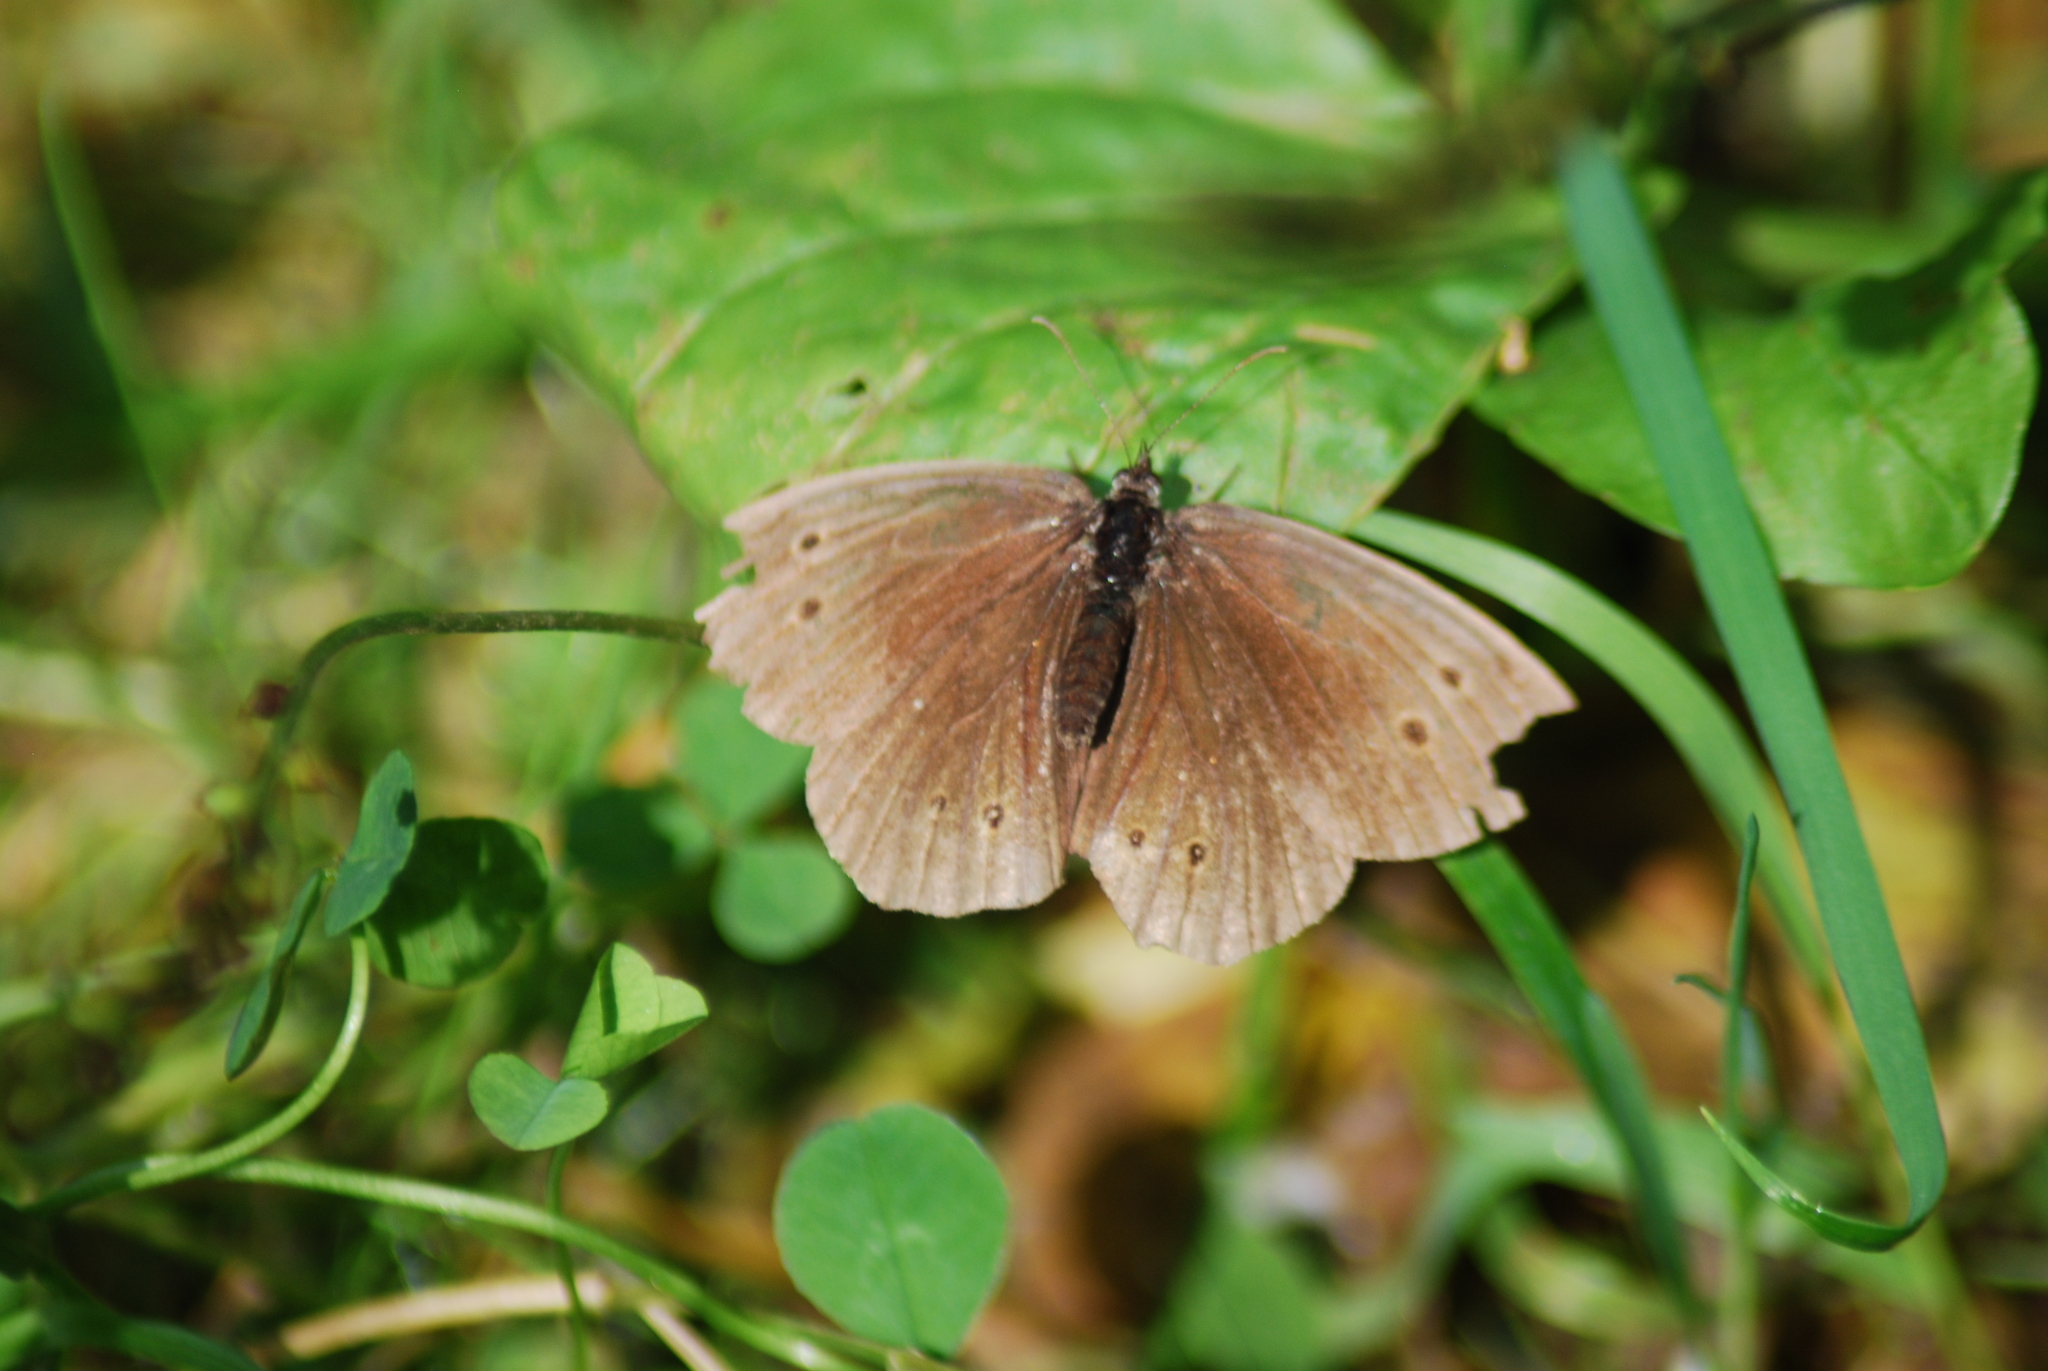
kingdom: Animalia
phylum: Arthropoda
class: Insecta
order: Lepidoptera
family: Nymphalidae
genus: Aphantopus
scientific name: Aphantopus hyperantus
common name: Ringlet
